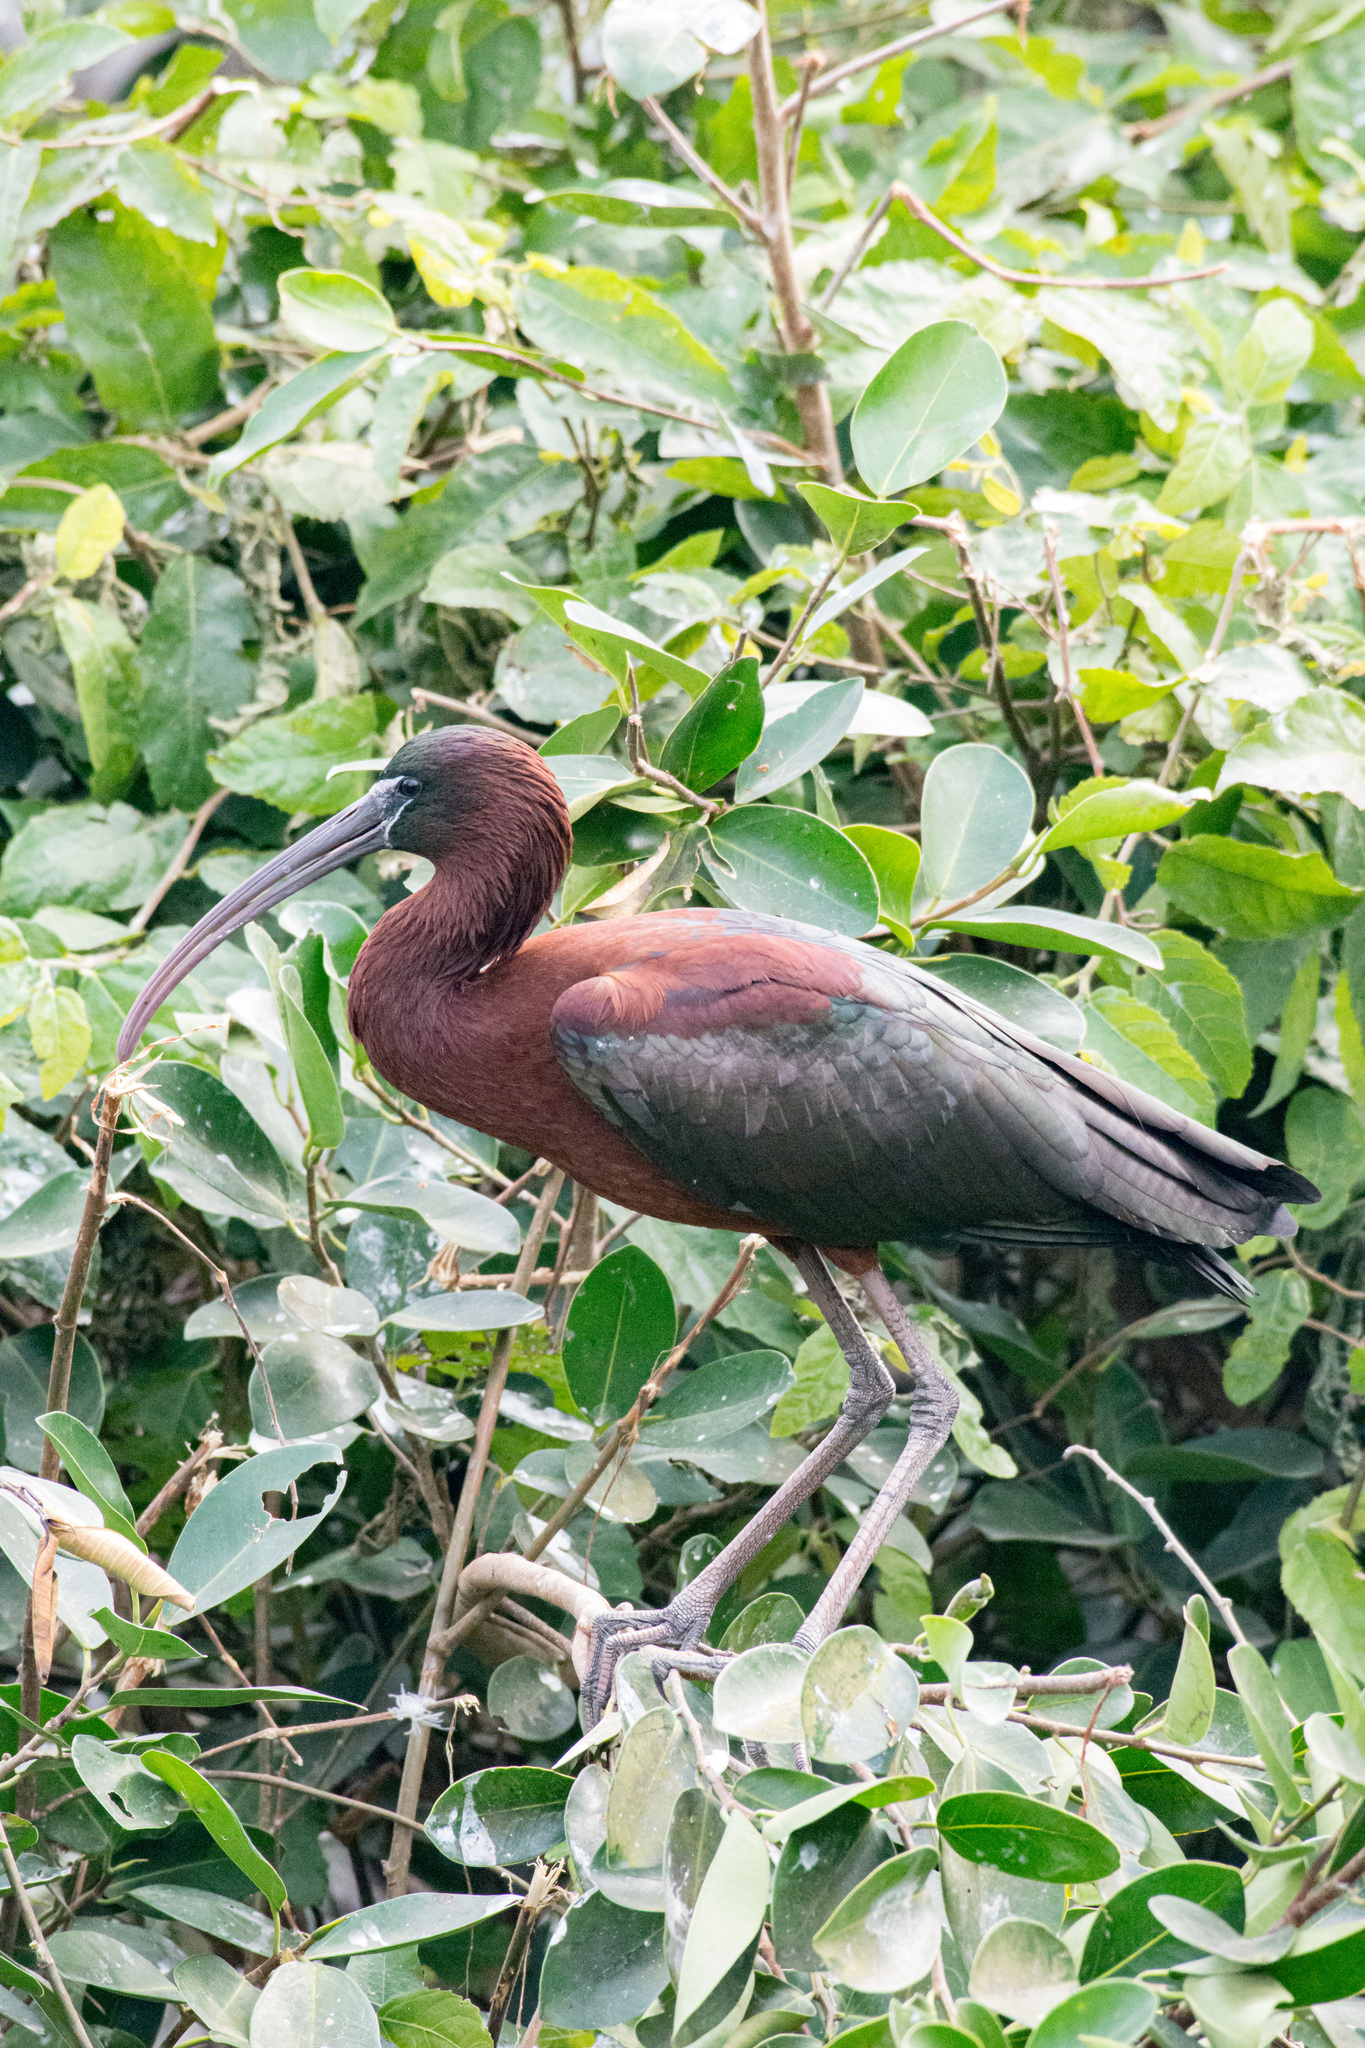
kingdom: Animalia
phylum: Chordata
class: Aves
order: Pelecaniformes
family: Threskiornithidae
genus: Plegadis
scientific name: Plegadis falcinellus
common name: Glossy ibis
